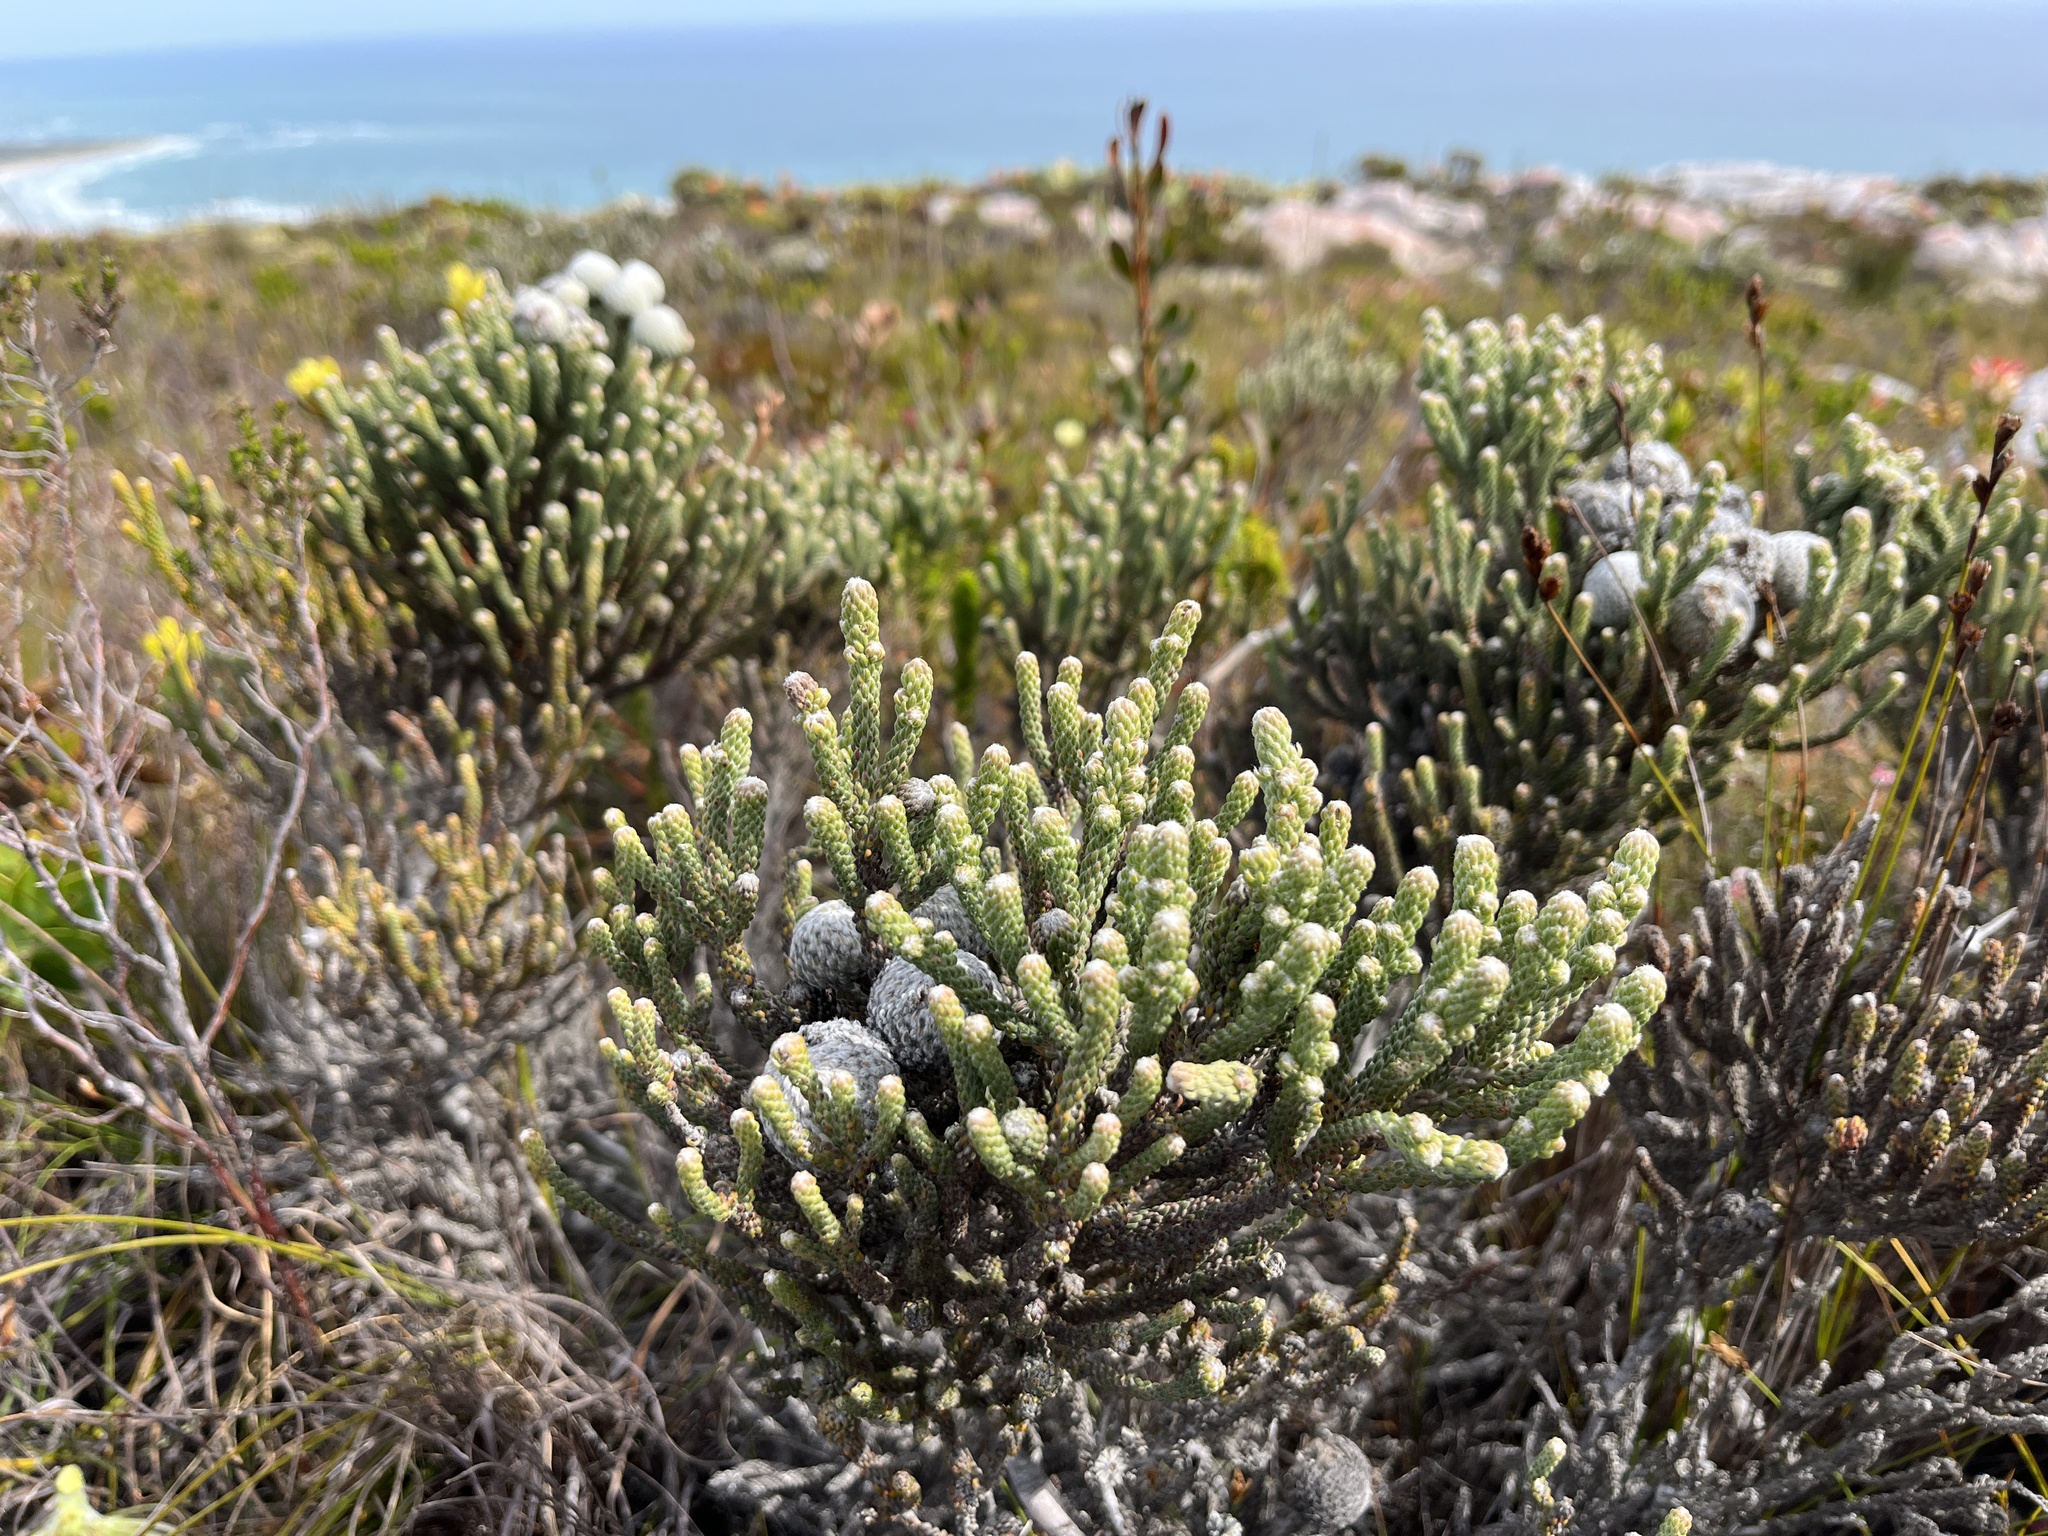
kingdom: Plantae
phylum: Tracheophyta
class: Magnoliopsida
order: Bruniales
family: Bruniaceae
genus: Brunia
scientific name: Brunia laevis
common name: Silver brunia
